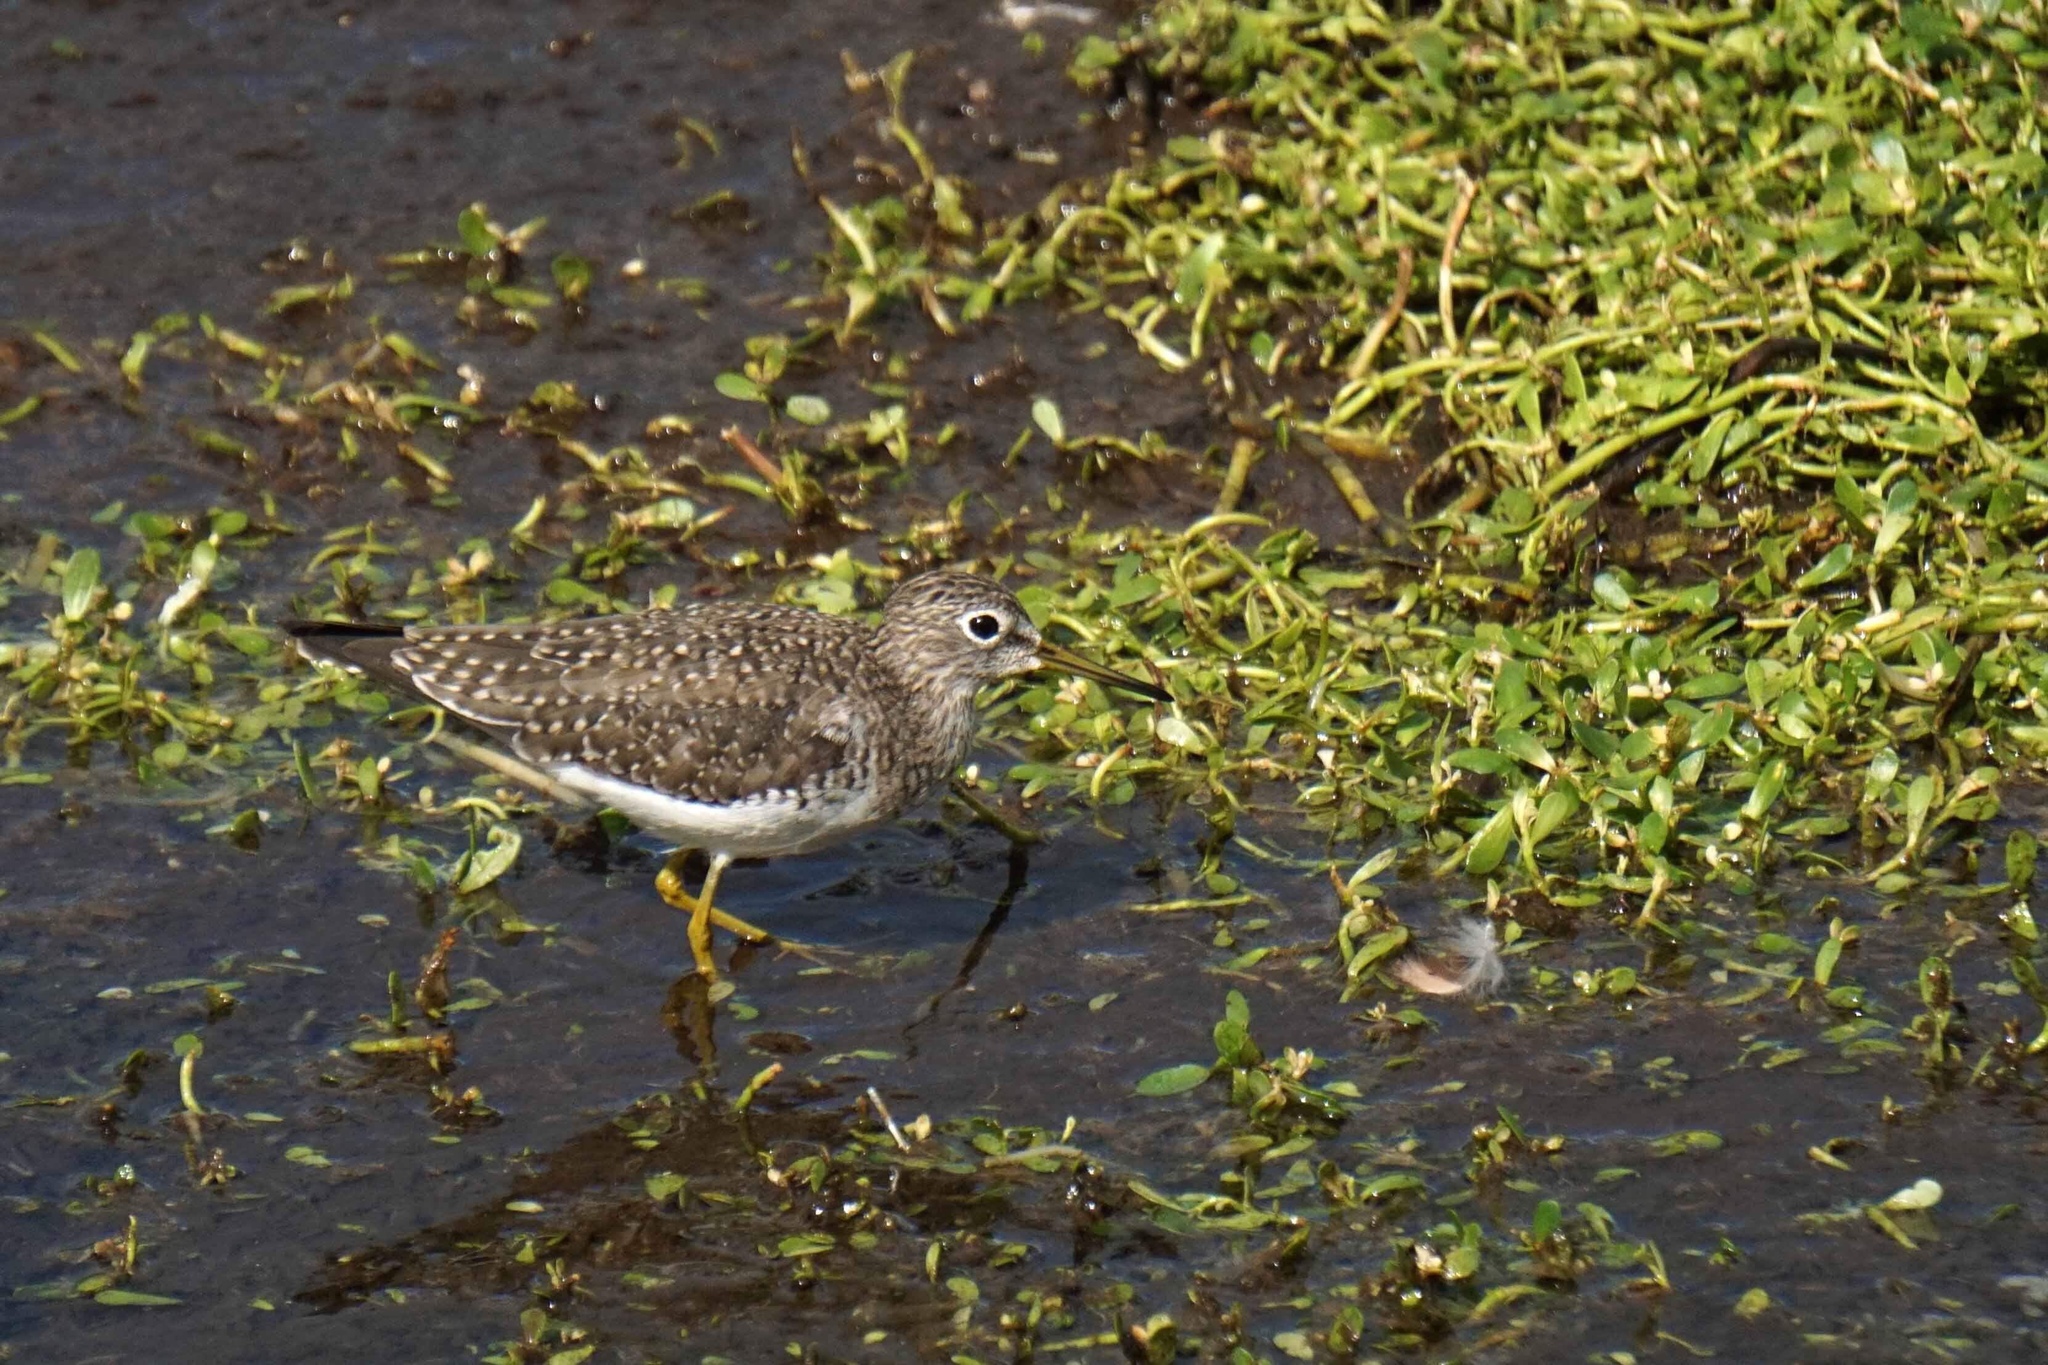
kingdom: Animalia
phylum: Chordata
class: Aves
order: Charadriiformes
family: Scolopacidae
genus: Tringa
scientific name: Tringa solitaria
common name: Solitary sandpiper
